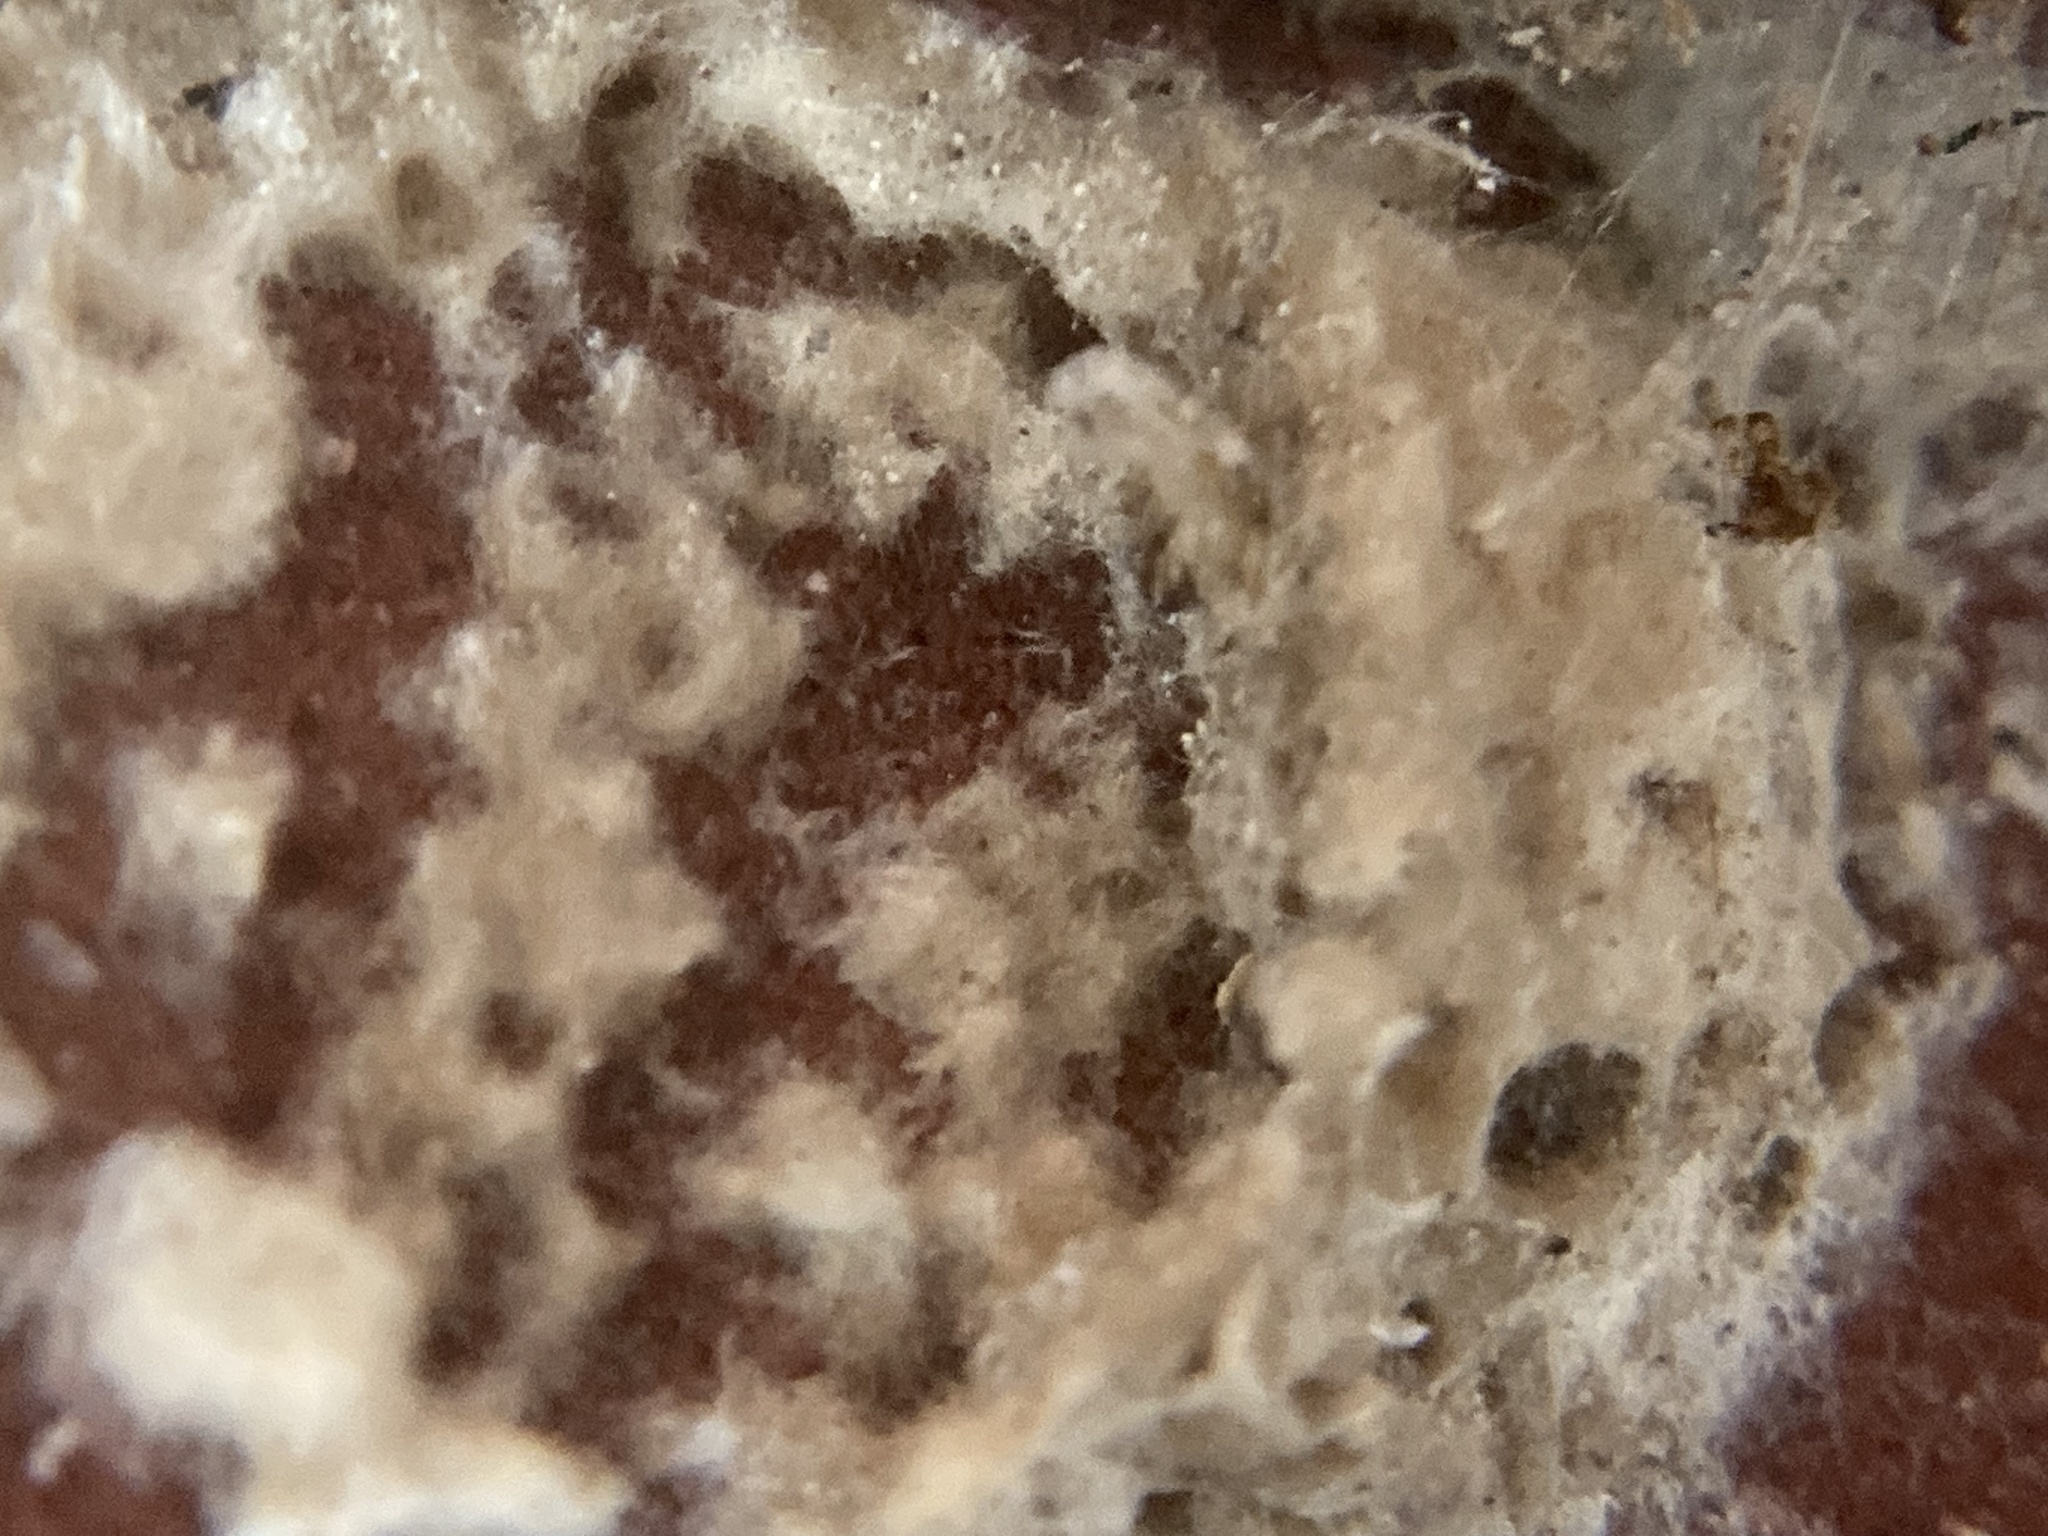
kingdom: Animalia
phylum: Arthropoda
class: Insecta
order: Lepidoptera
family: Erebidae
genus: Lymantria
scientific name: Lymantria dispar
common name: Gypsy moth
